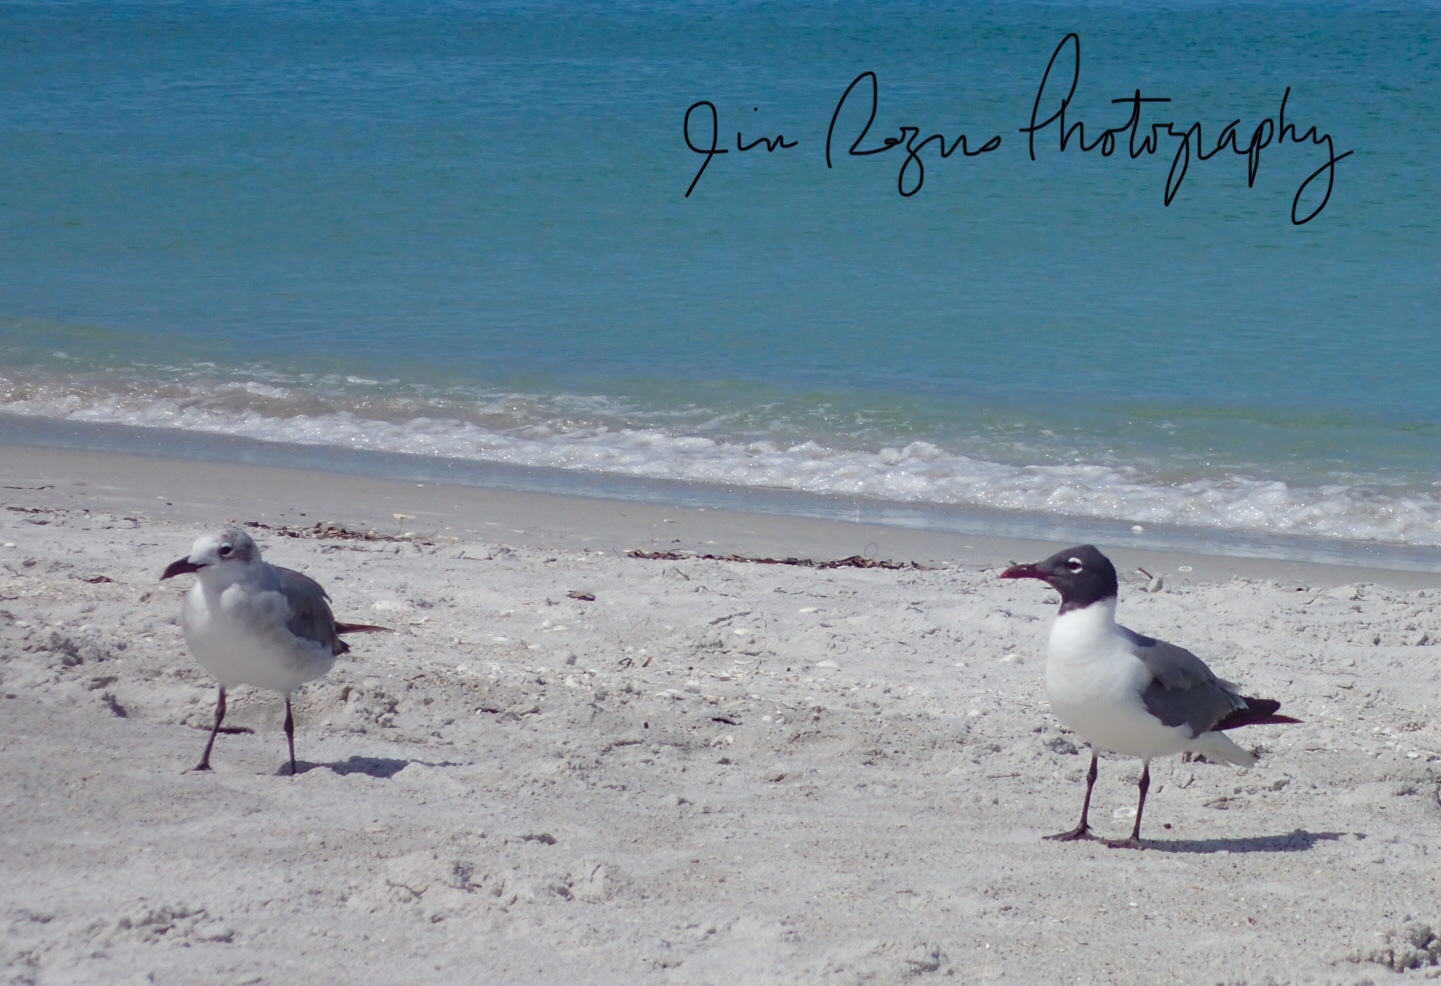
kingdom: Animalia
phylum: Chordata
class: Aves
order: Charadriiformes
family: Laridae
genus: Leucophaeus
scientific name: Leucophaeus atricilla
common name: Laughing gull
